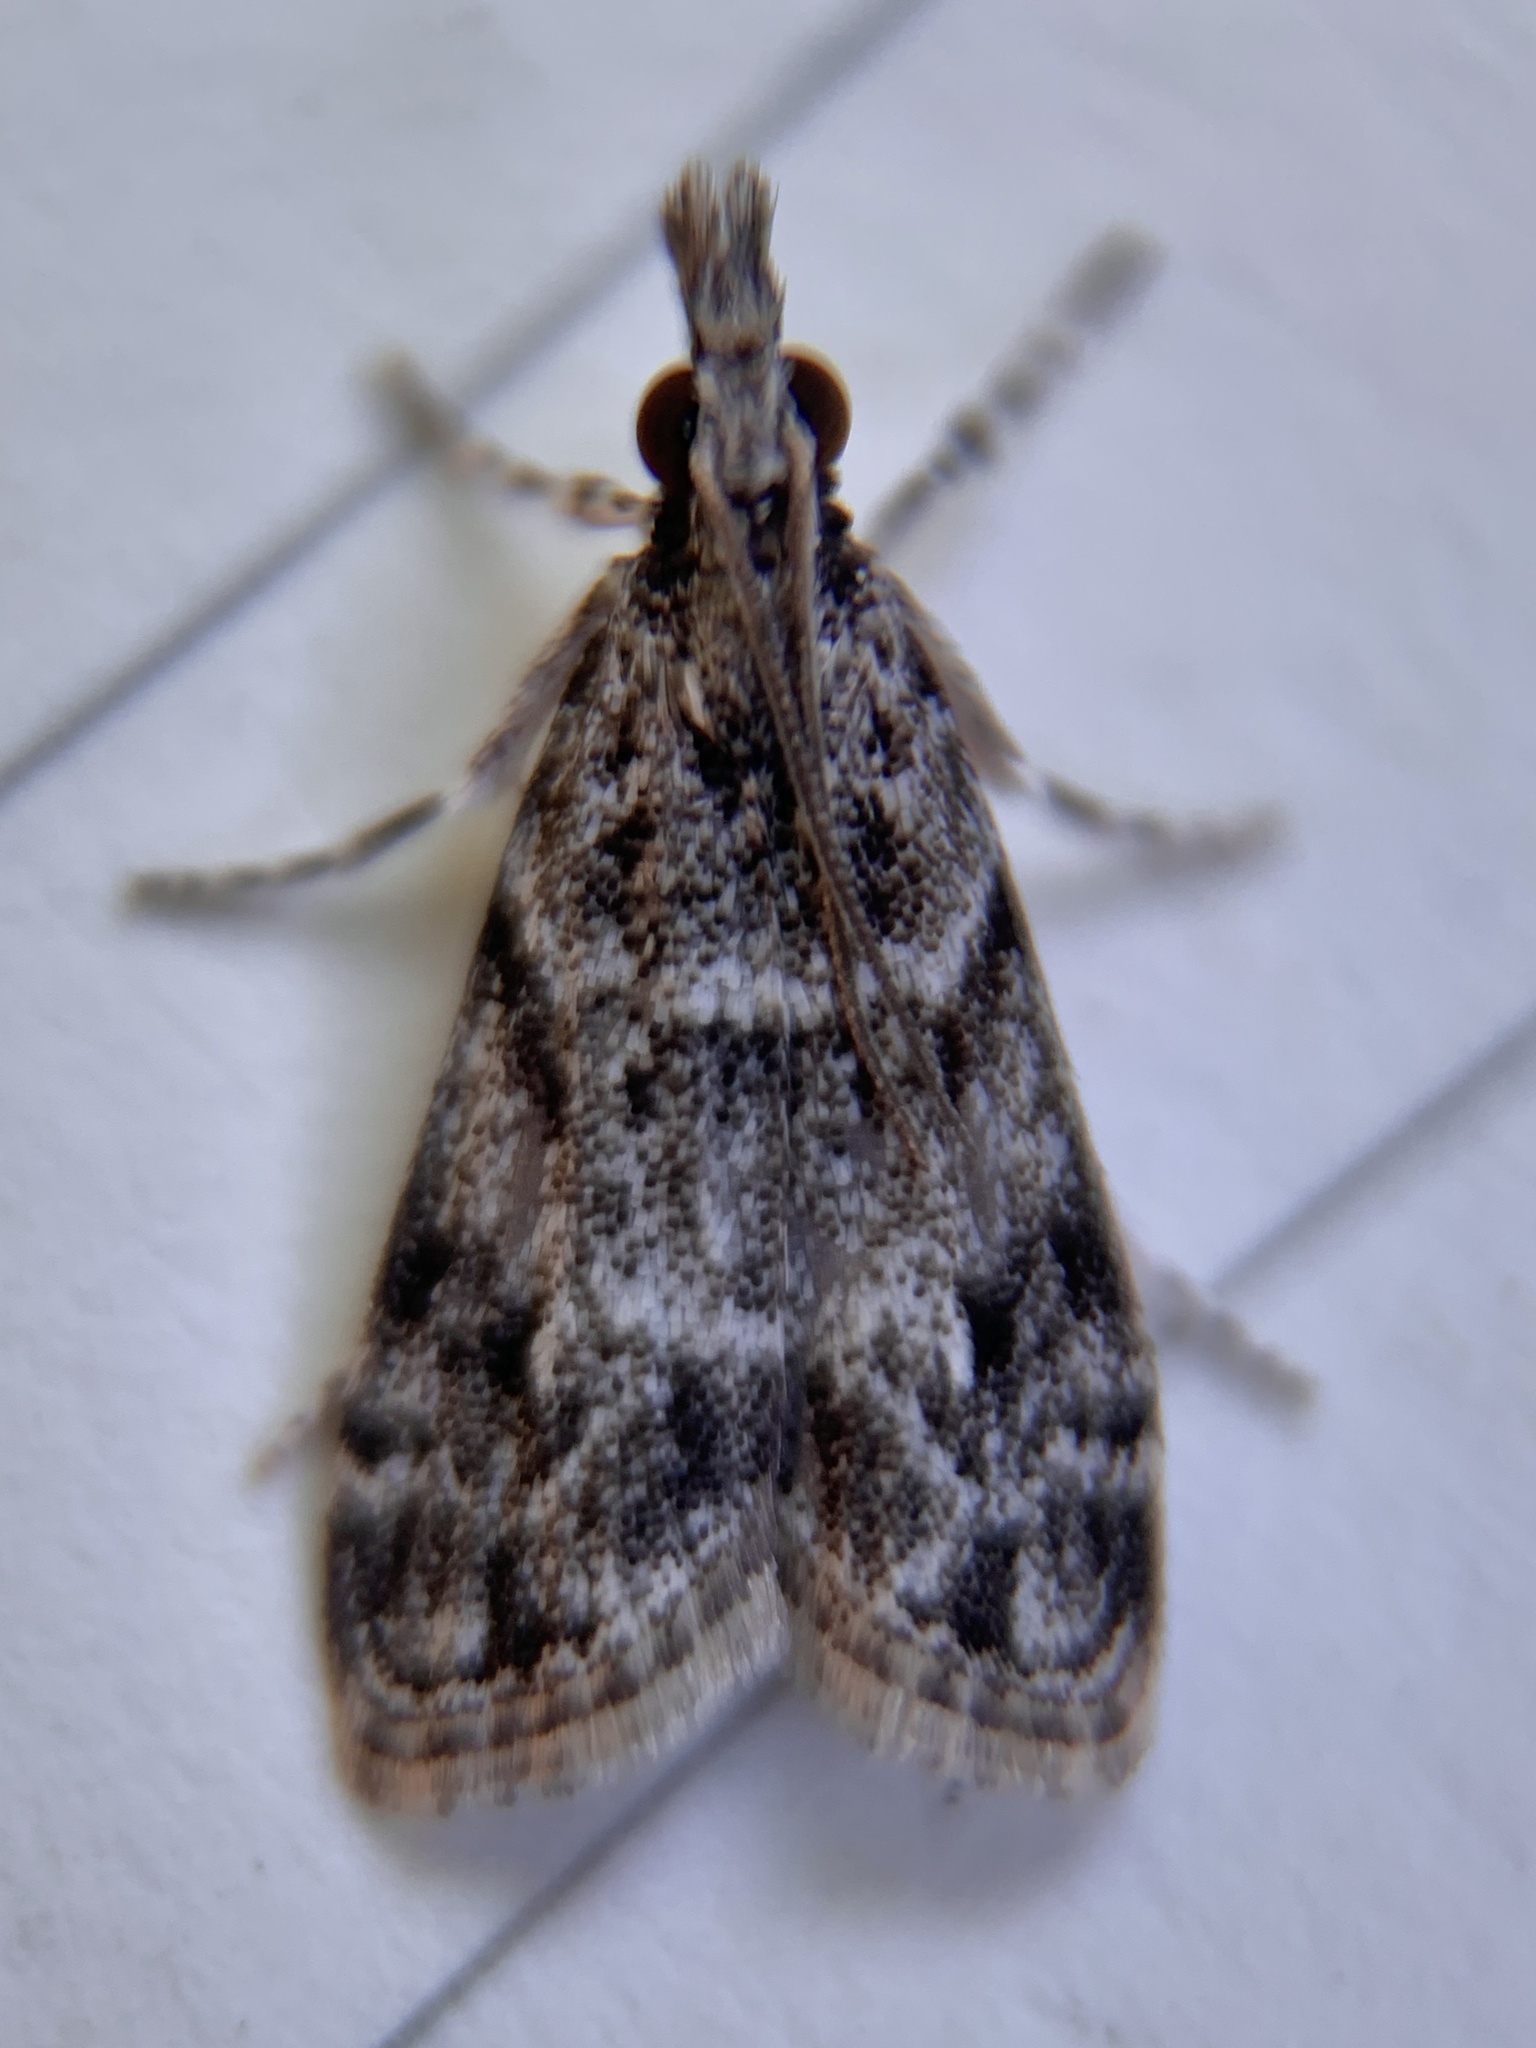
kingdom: Animalia
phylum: Arthropoda
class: Insecta
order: Lepidoptera
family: Crambidae
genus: Eudonia
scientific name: Eudonia heterosalis
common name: Mcdunnough's eudonia
